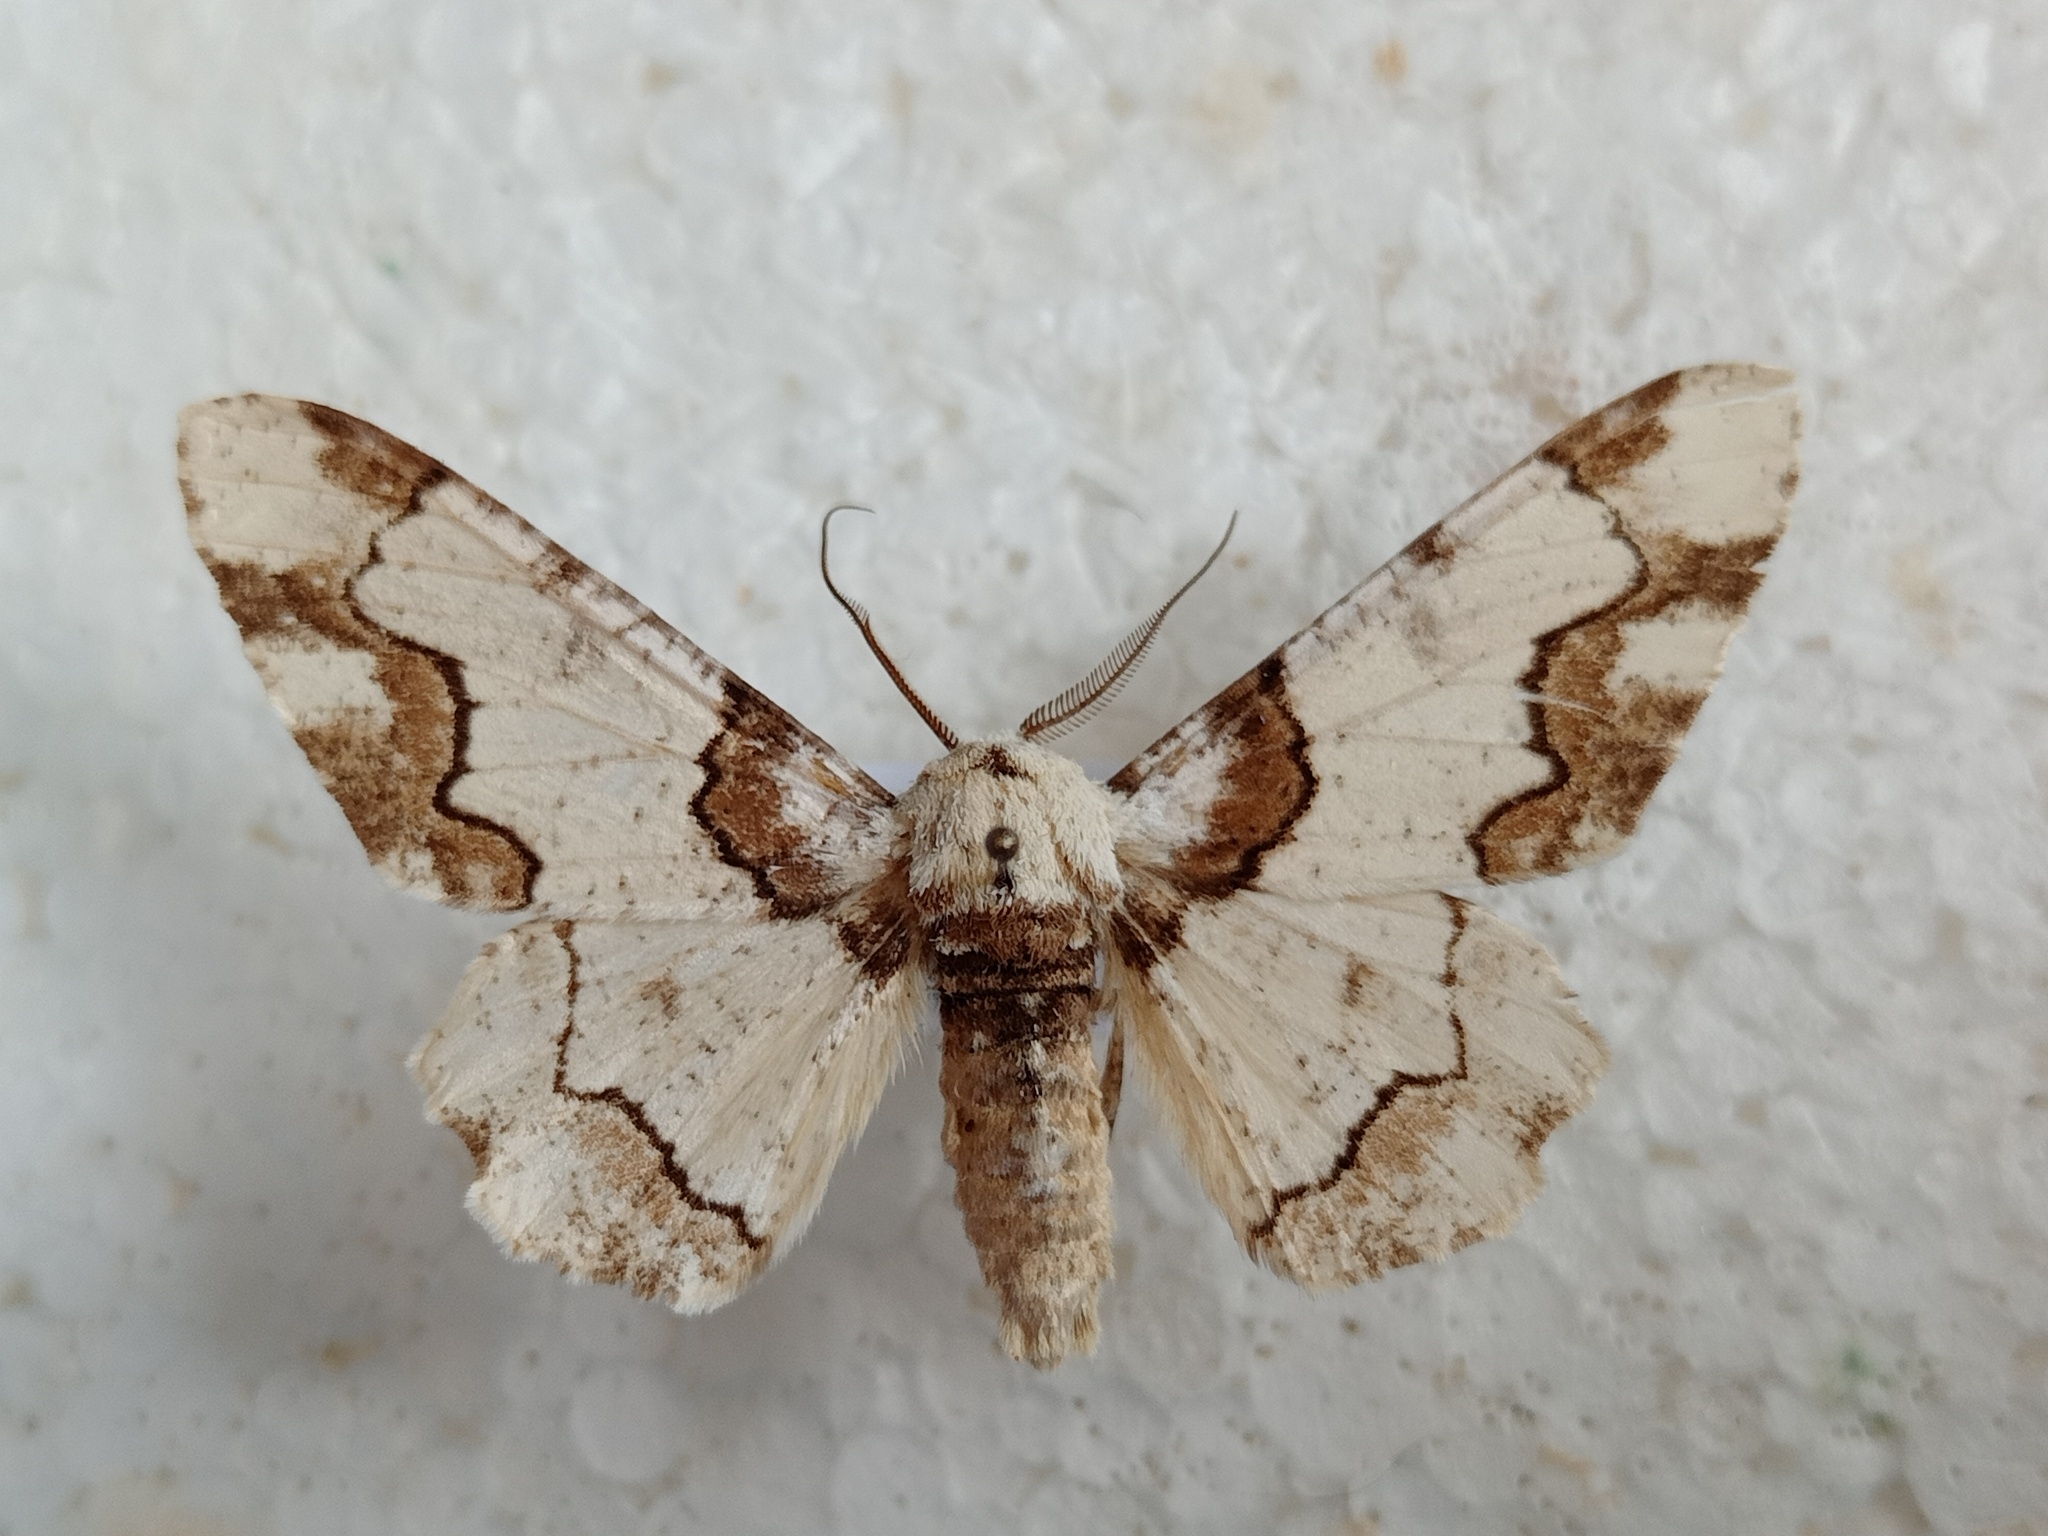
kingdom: Animalia
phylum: Arthropoda
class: Insecta
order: Lepidoptera
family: Geometridae
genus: Biston
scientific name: Biston regalis
